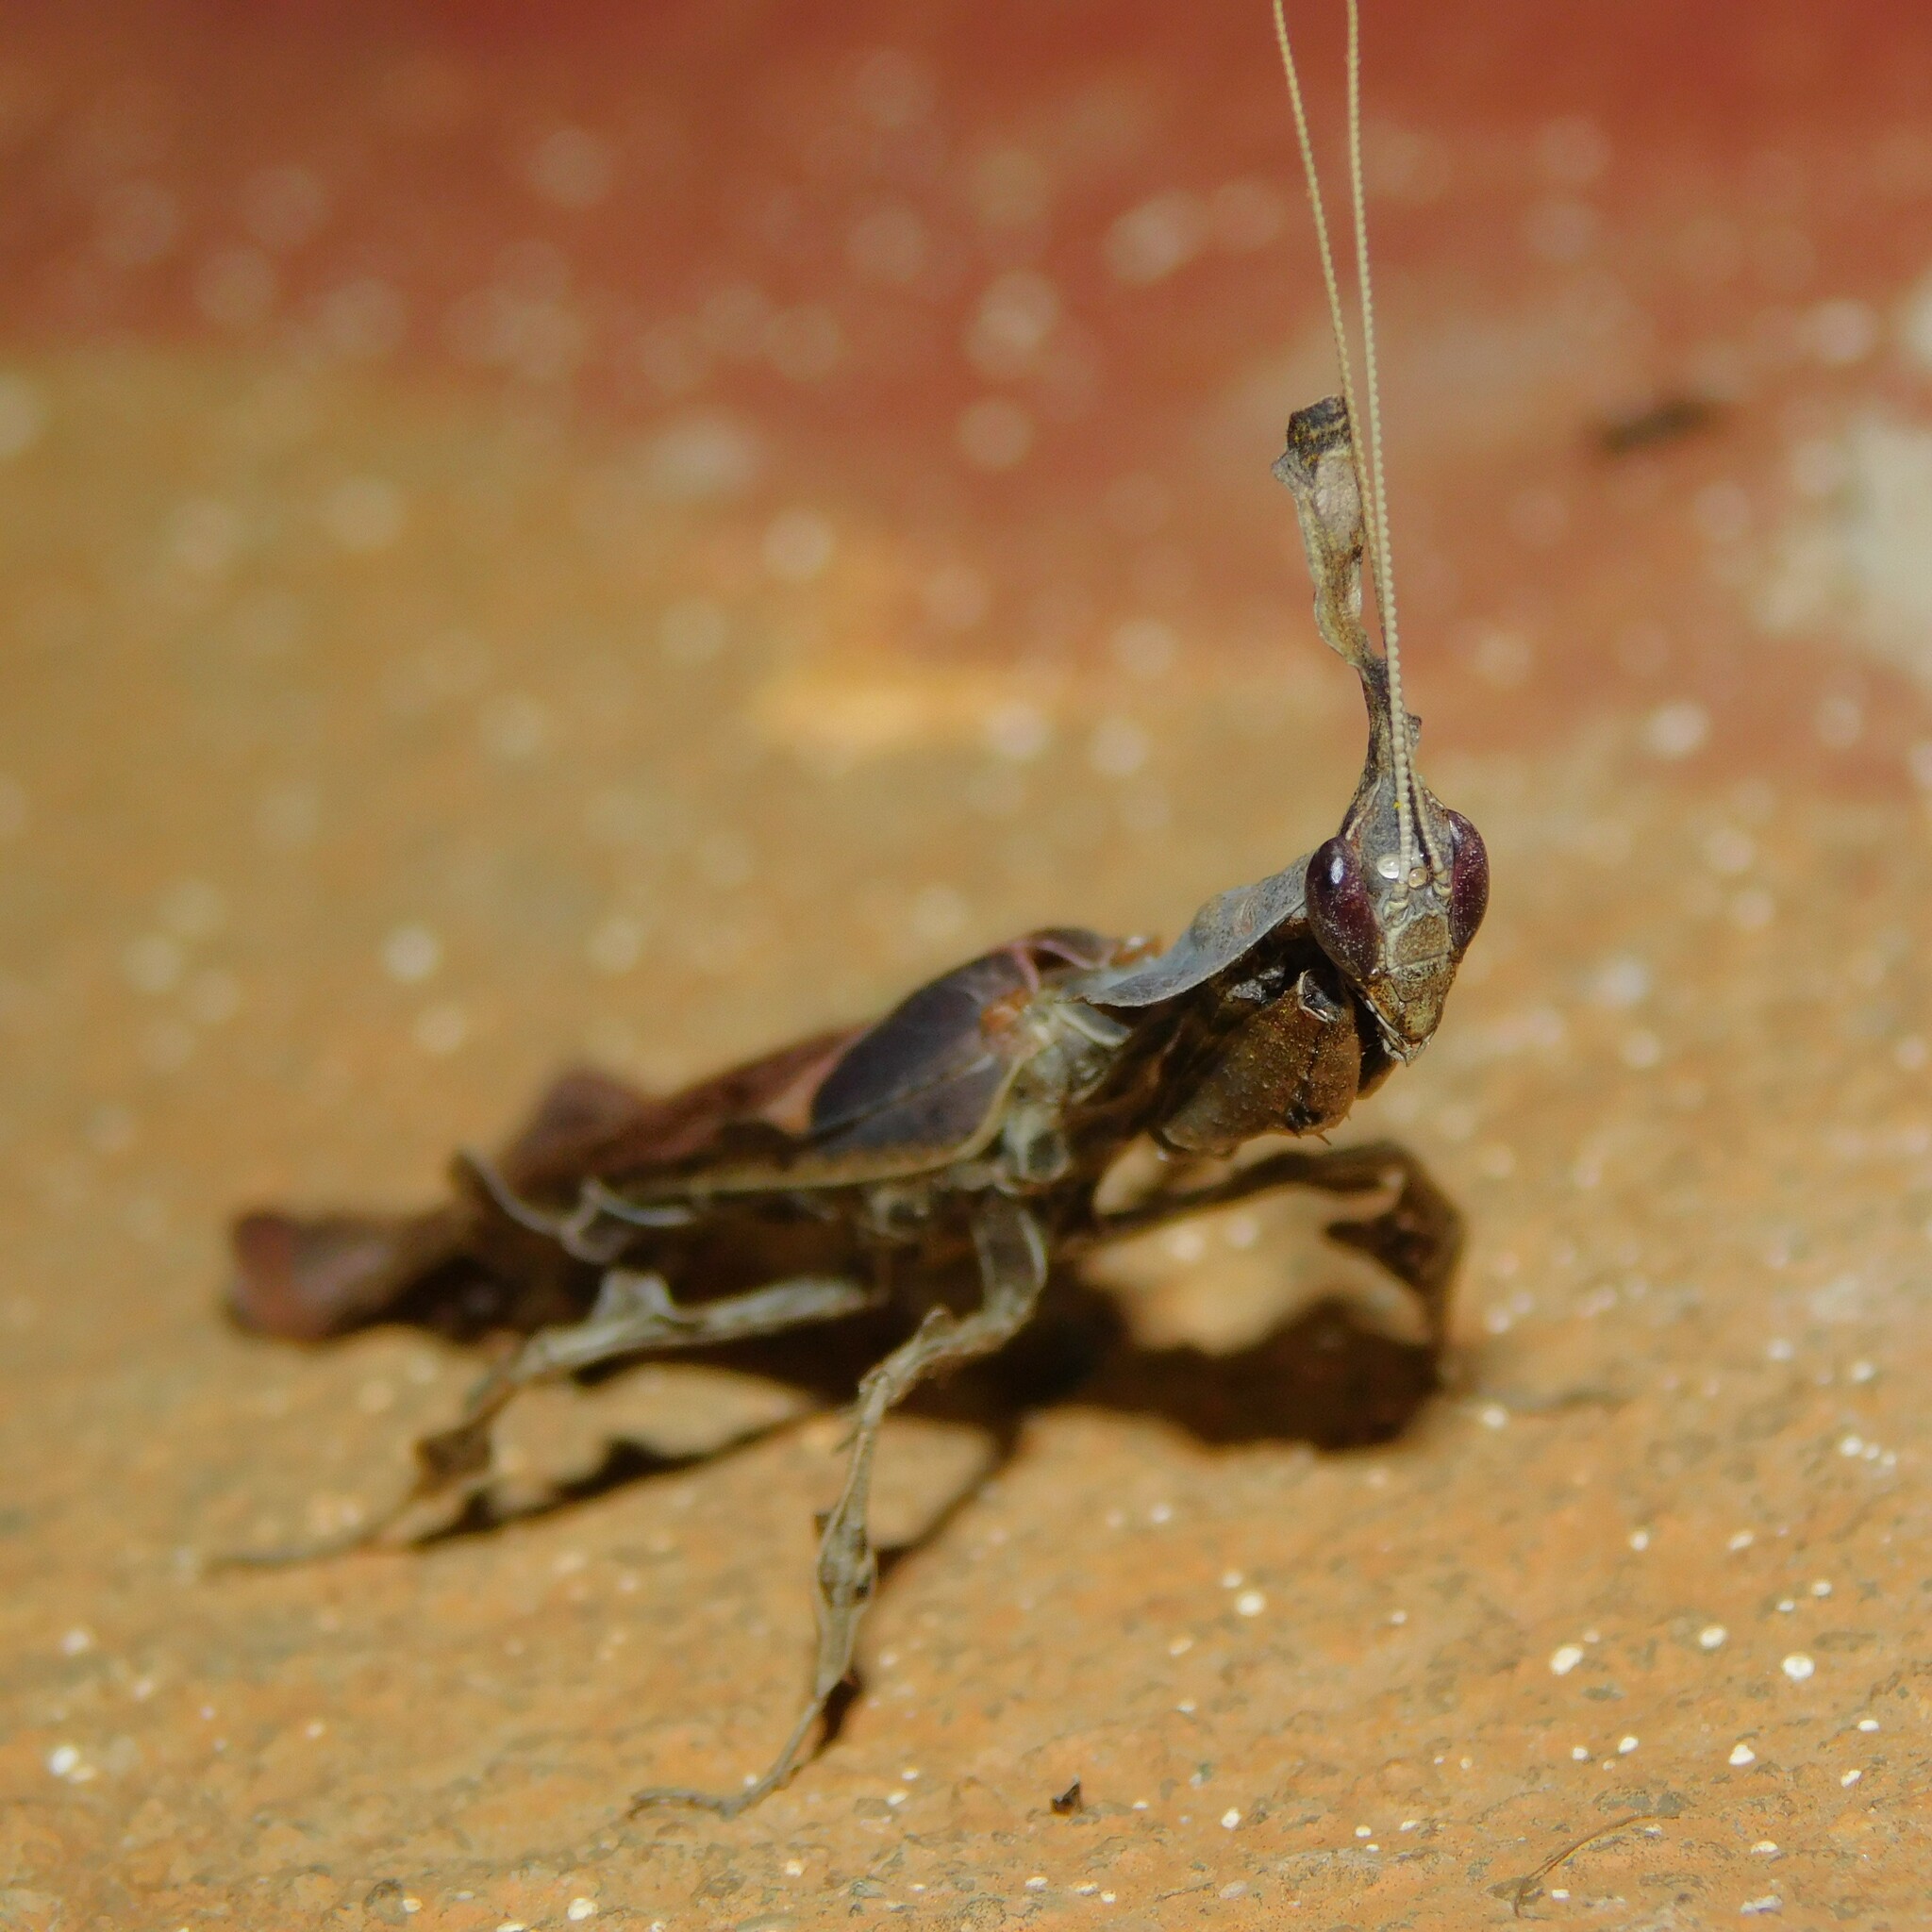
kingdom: Animalia
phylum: Arthropoda
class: Insecta
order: Mantodea
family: Hymenopodidae
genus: Phyllocrania
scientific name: Phyllocrania paradoxa
